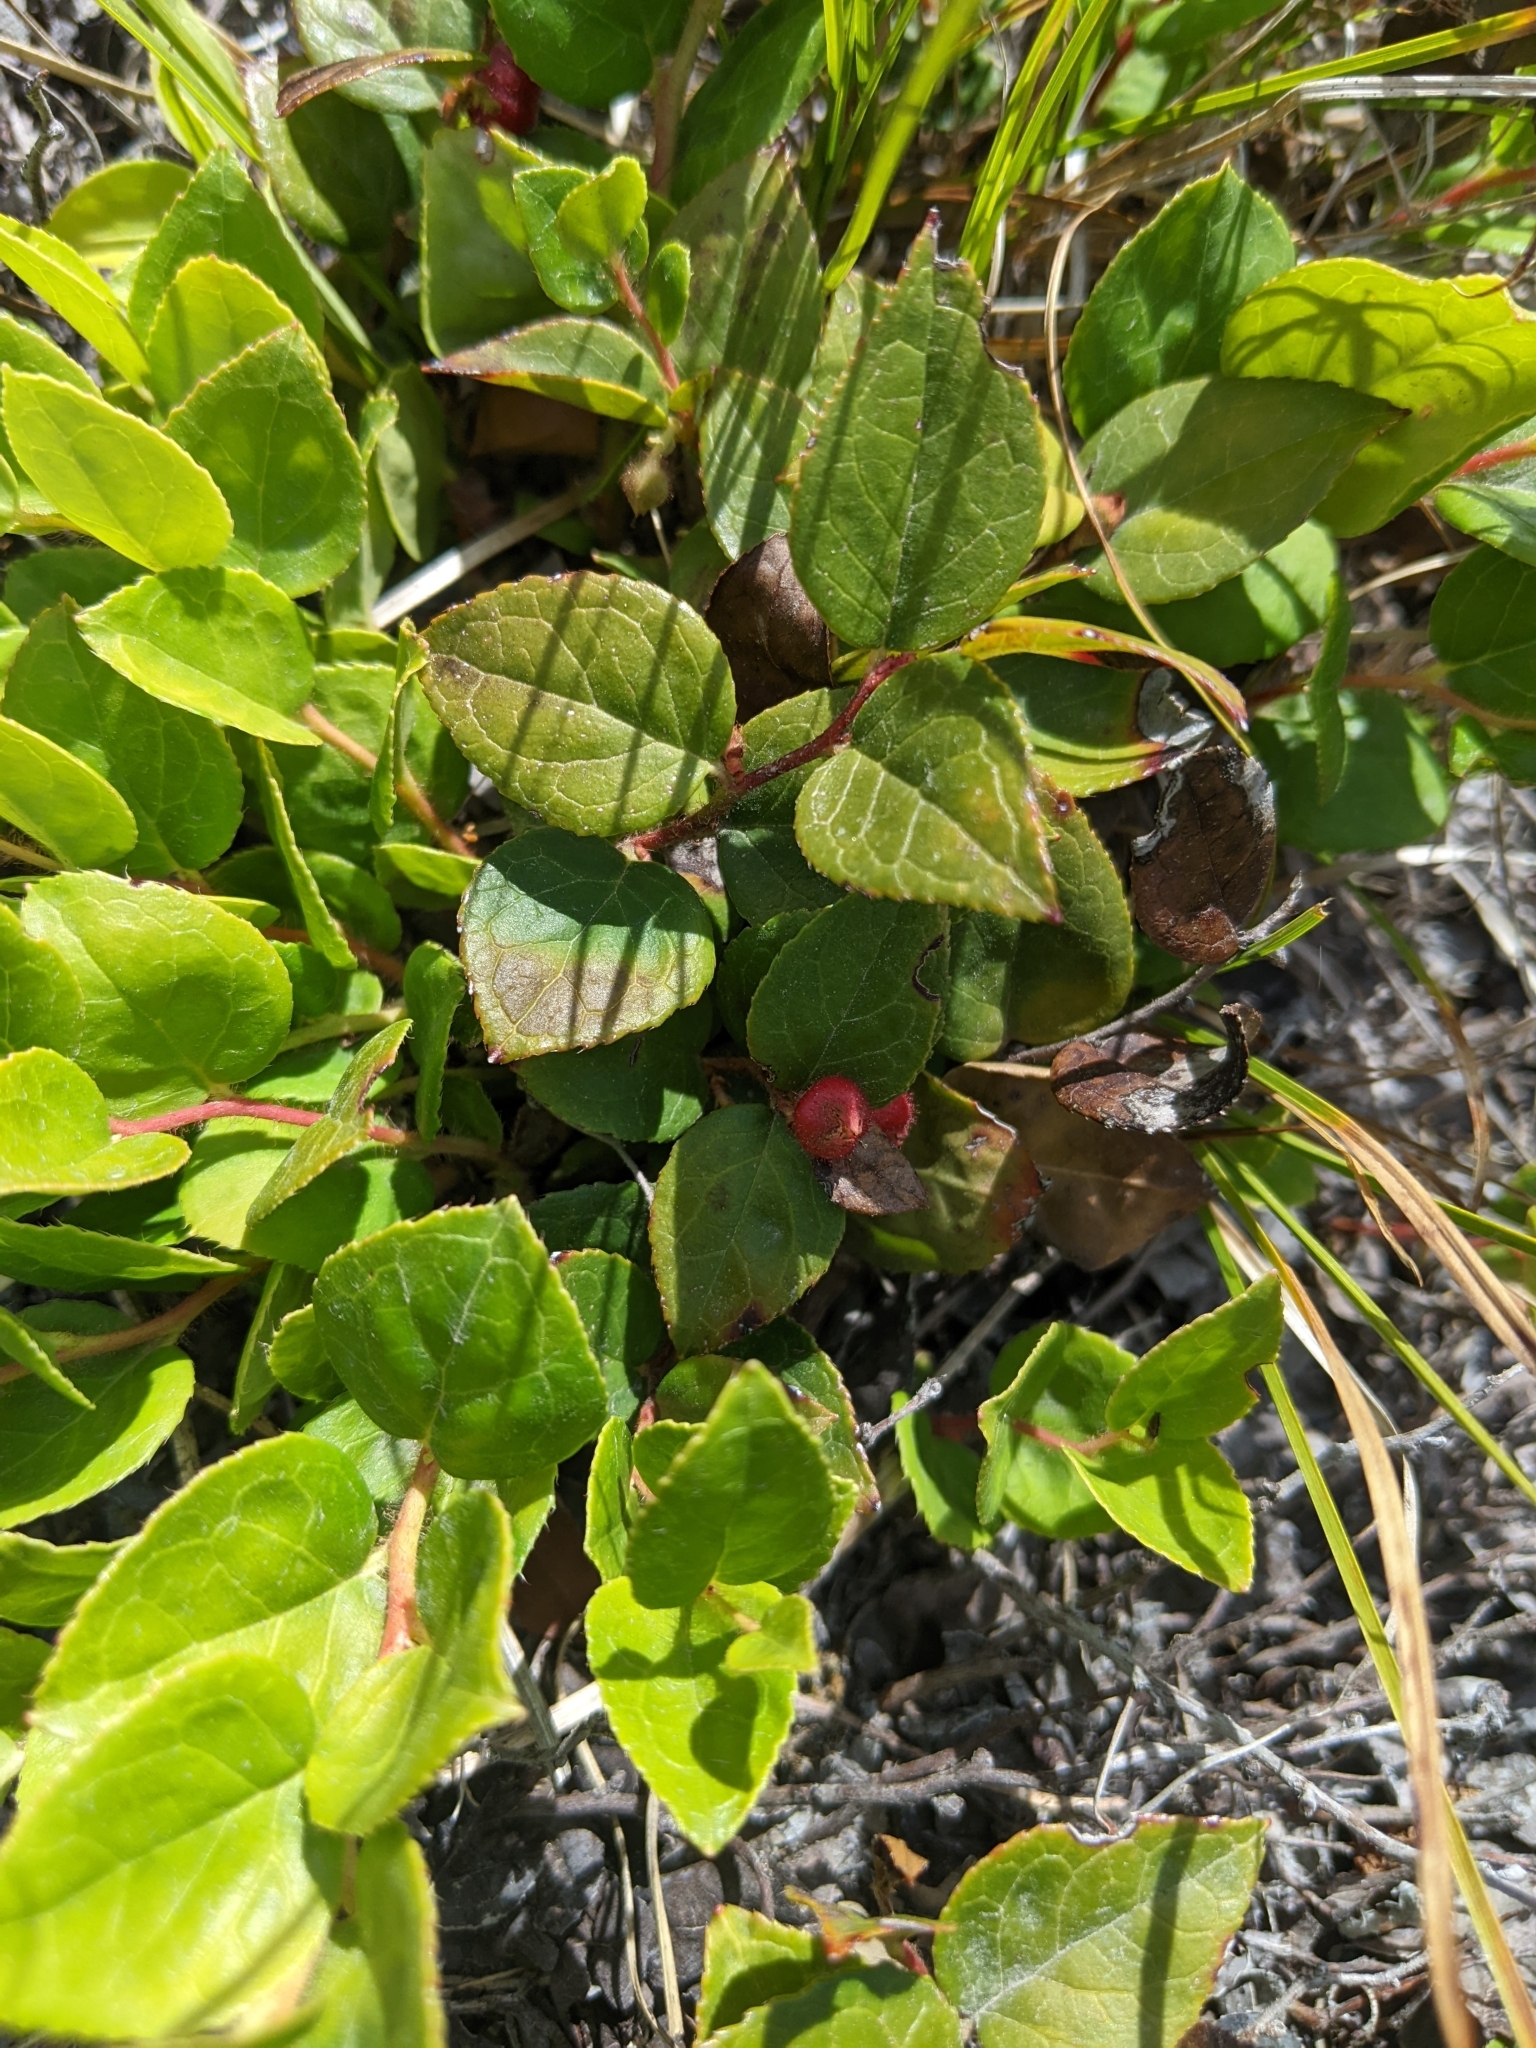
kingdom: Plantae
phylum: Tracheophyta
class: Magnoliopsida
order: Ericales
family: Ericaceae
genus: Gaultheria
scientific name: Gaultheria ovatifolia
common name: Oregon wintergreen
